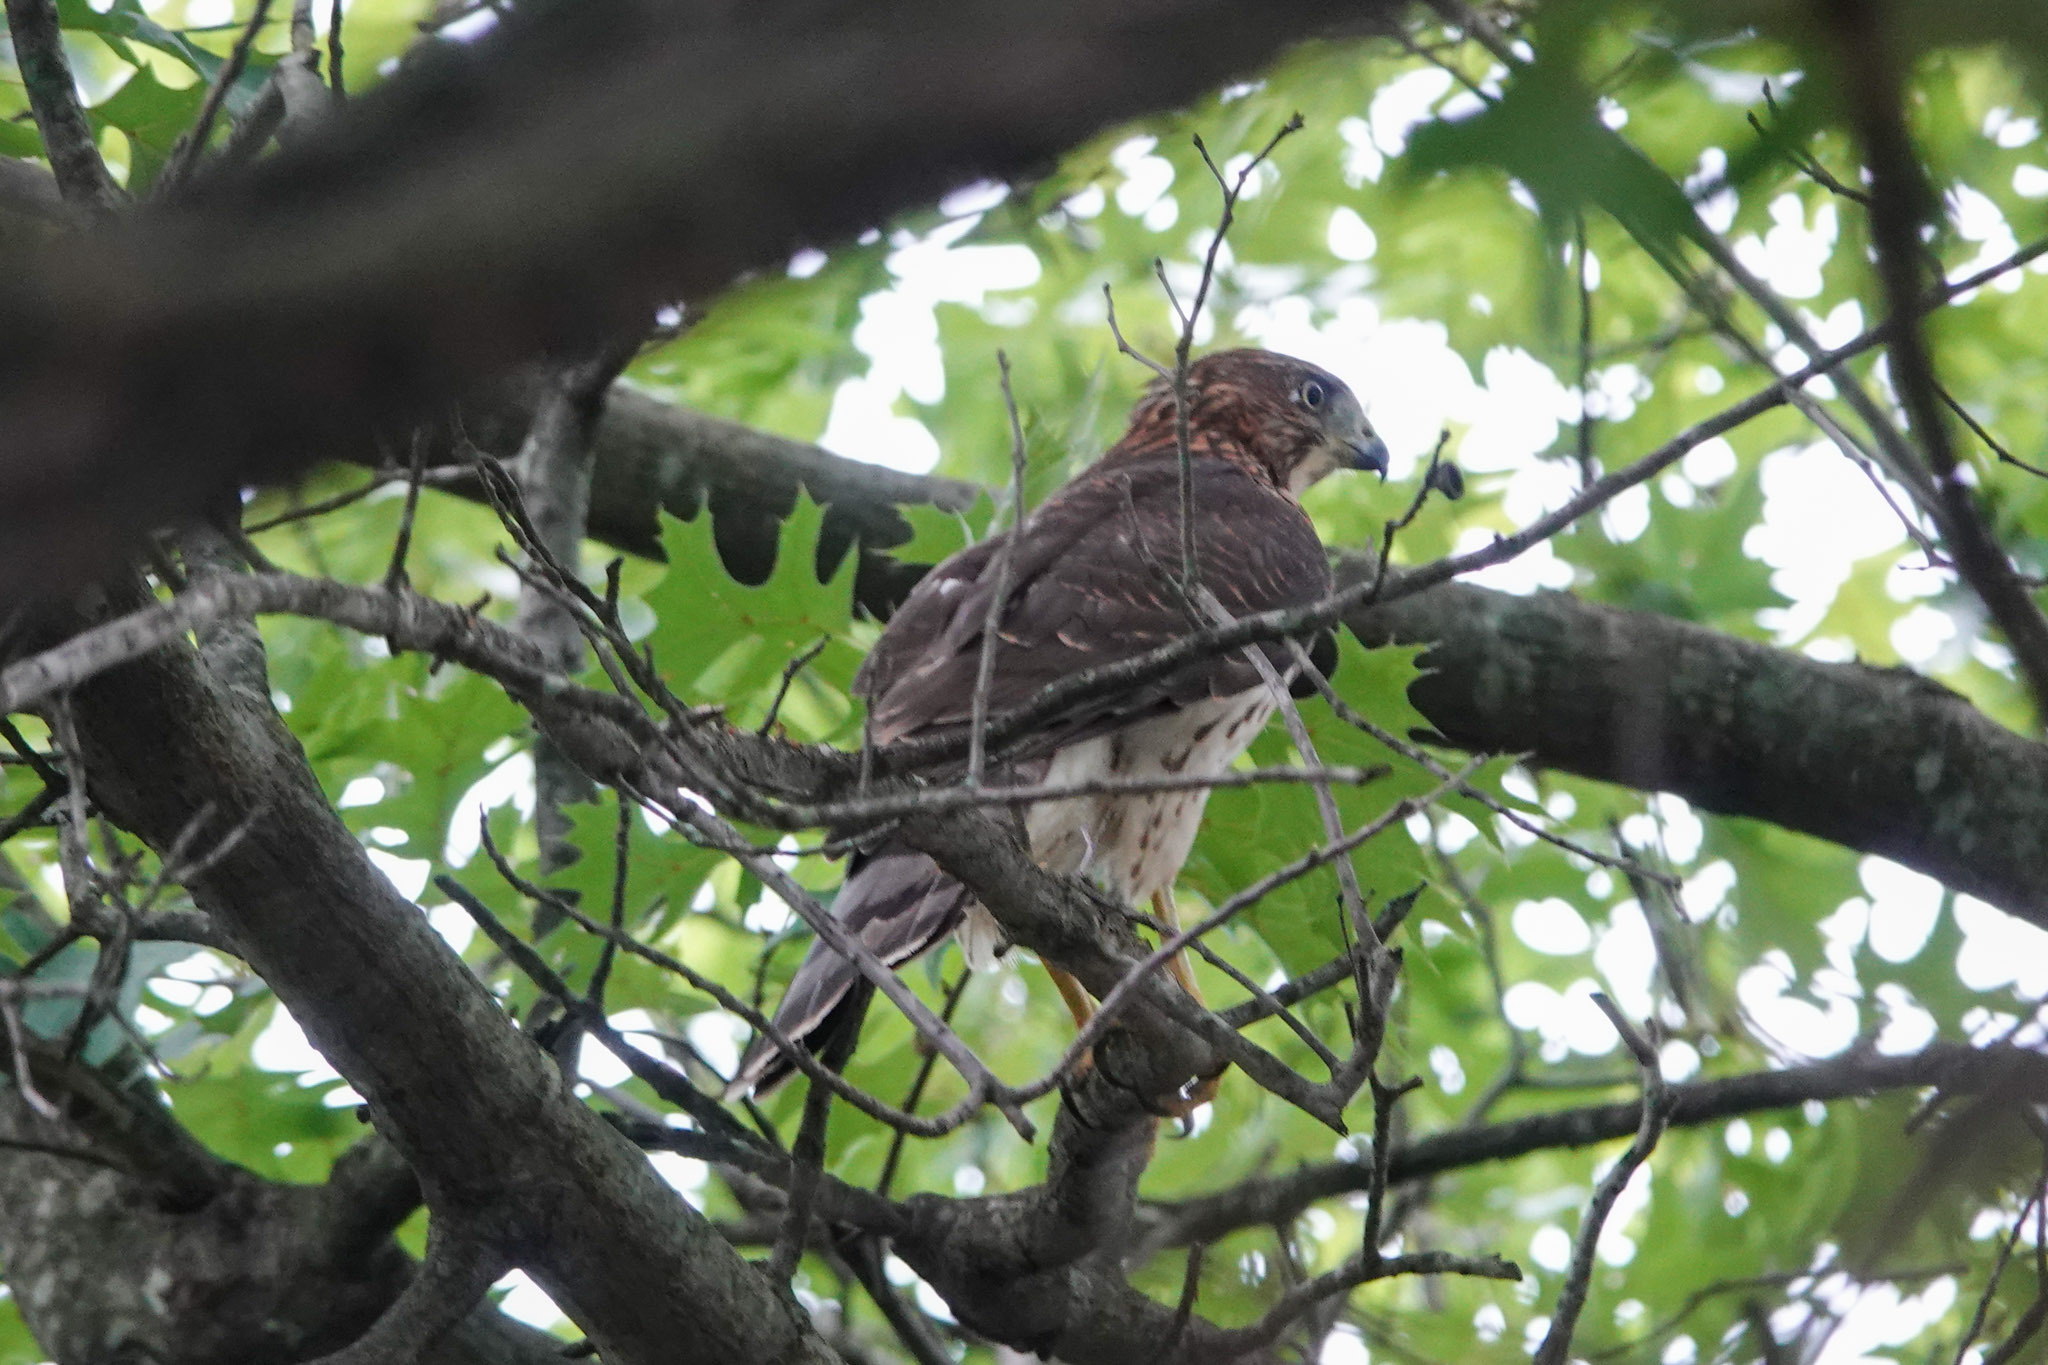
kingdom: Animalia
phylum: Chordata
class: Aves
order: Accipitriformes
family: Accipitridae
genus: Accipiter
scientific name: Accipiter cooperii
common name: Cooper's hawk
